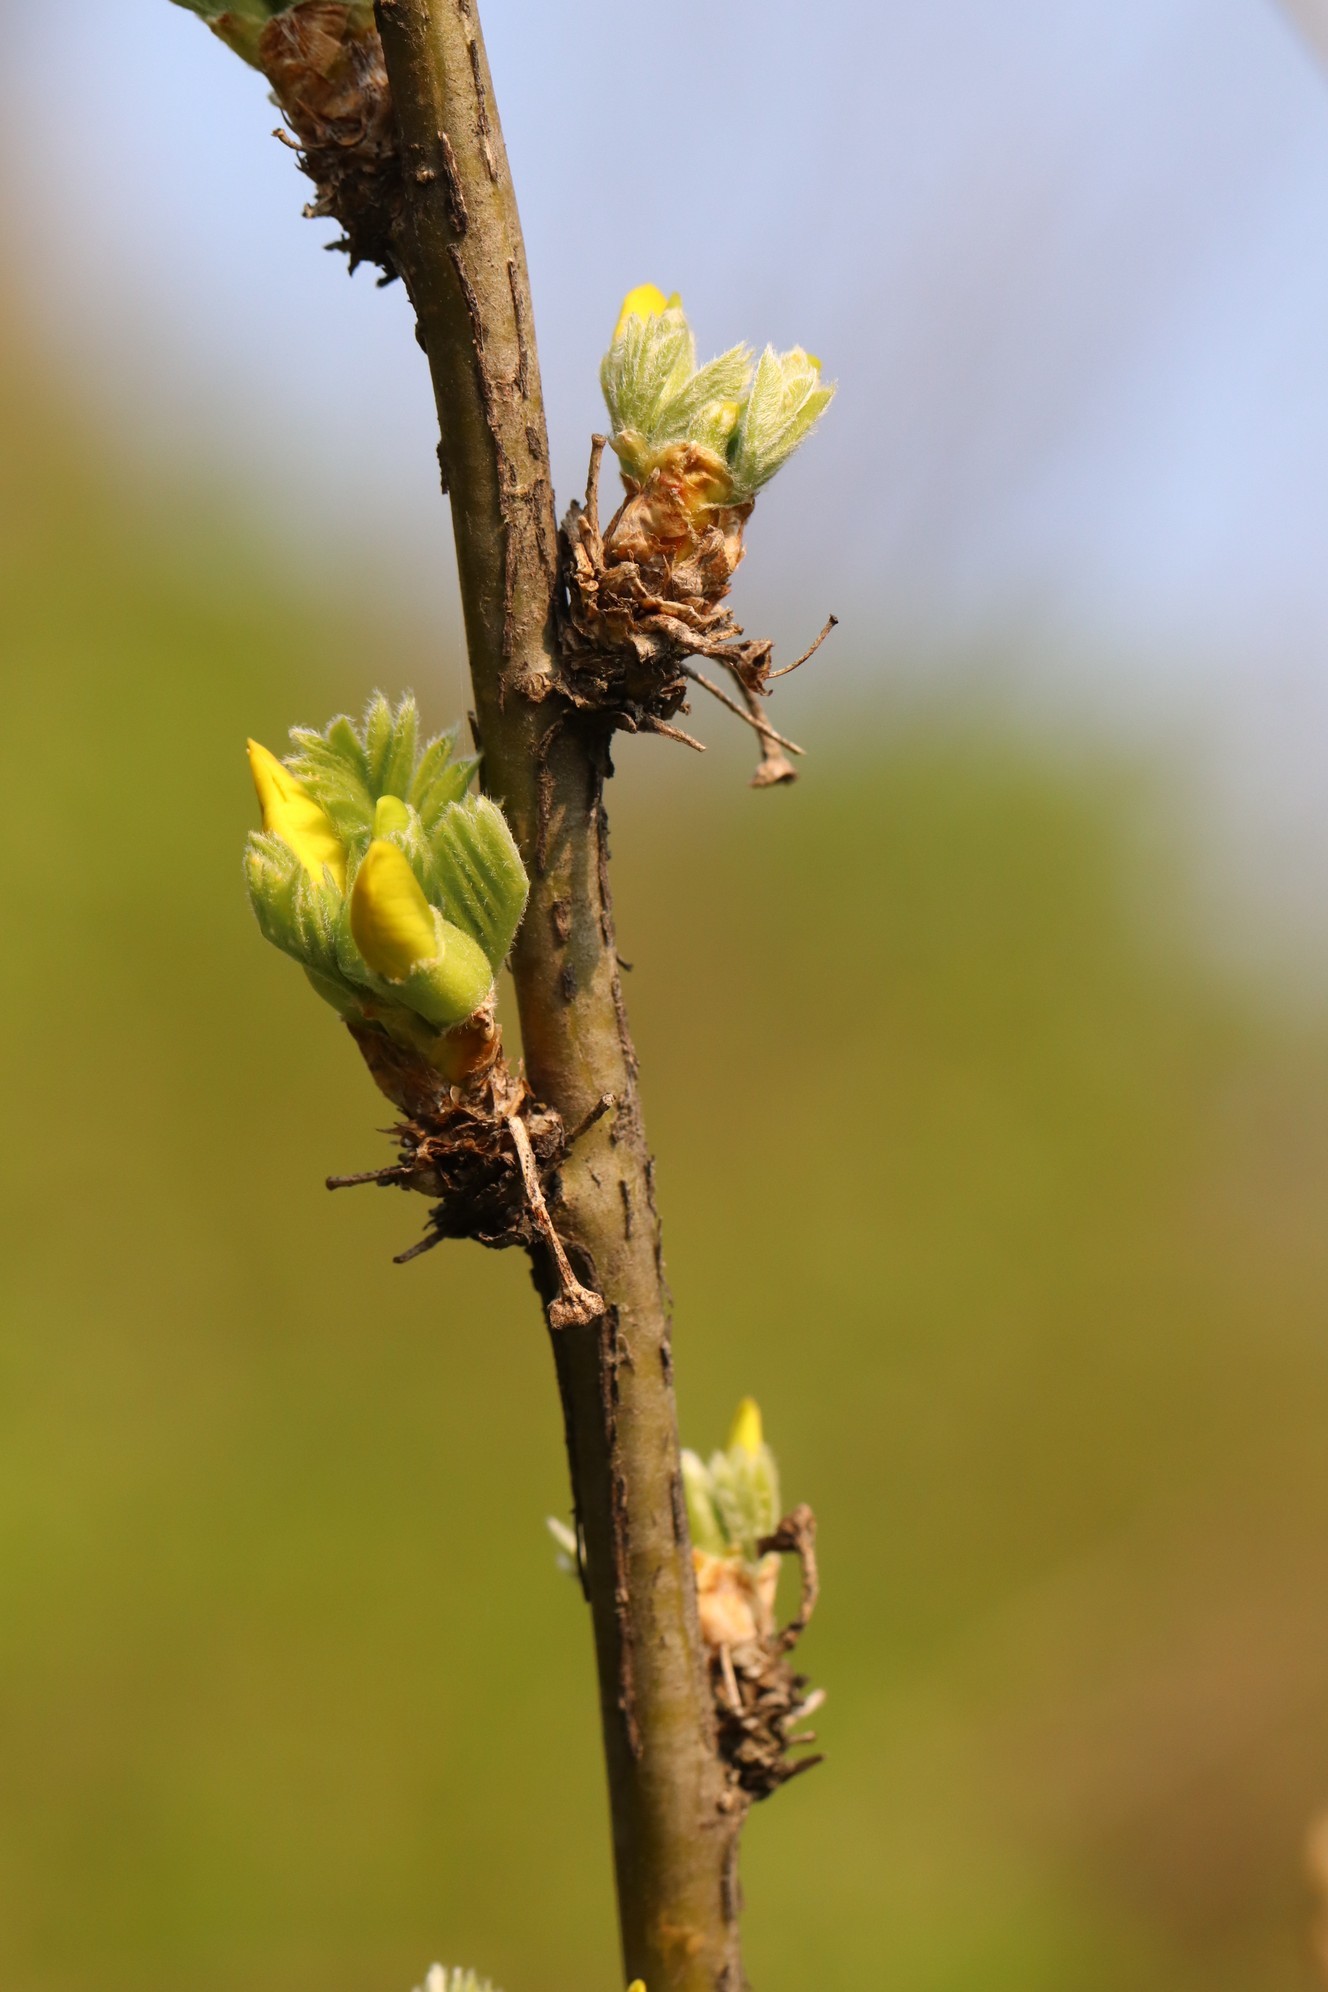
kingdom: Plantae
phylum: Tracheophyta
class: Magnoliopsida
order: Fabales
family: Fabaceae
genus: Caragana
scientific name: Caragana arborescens
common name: Siberian peashrub
